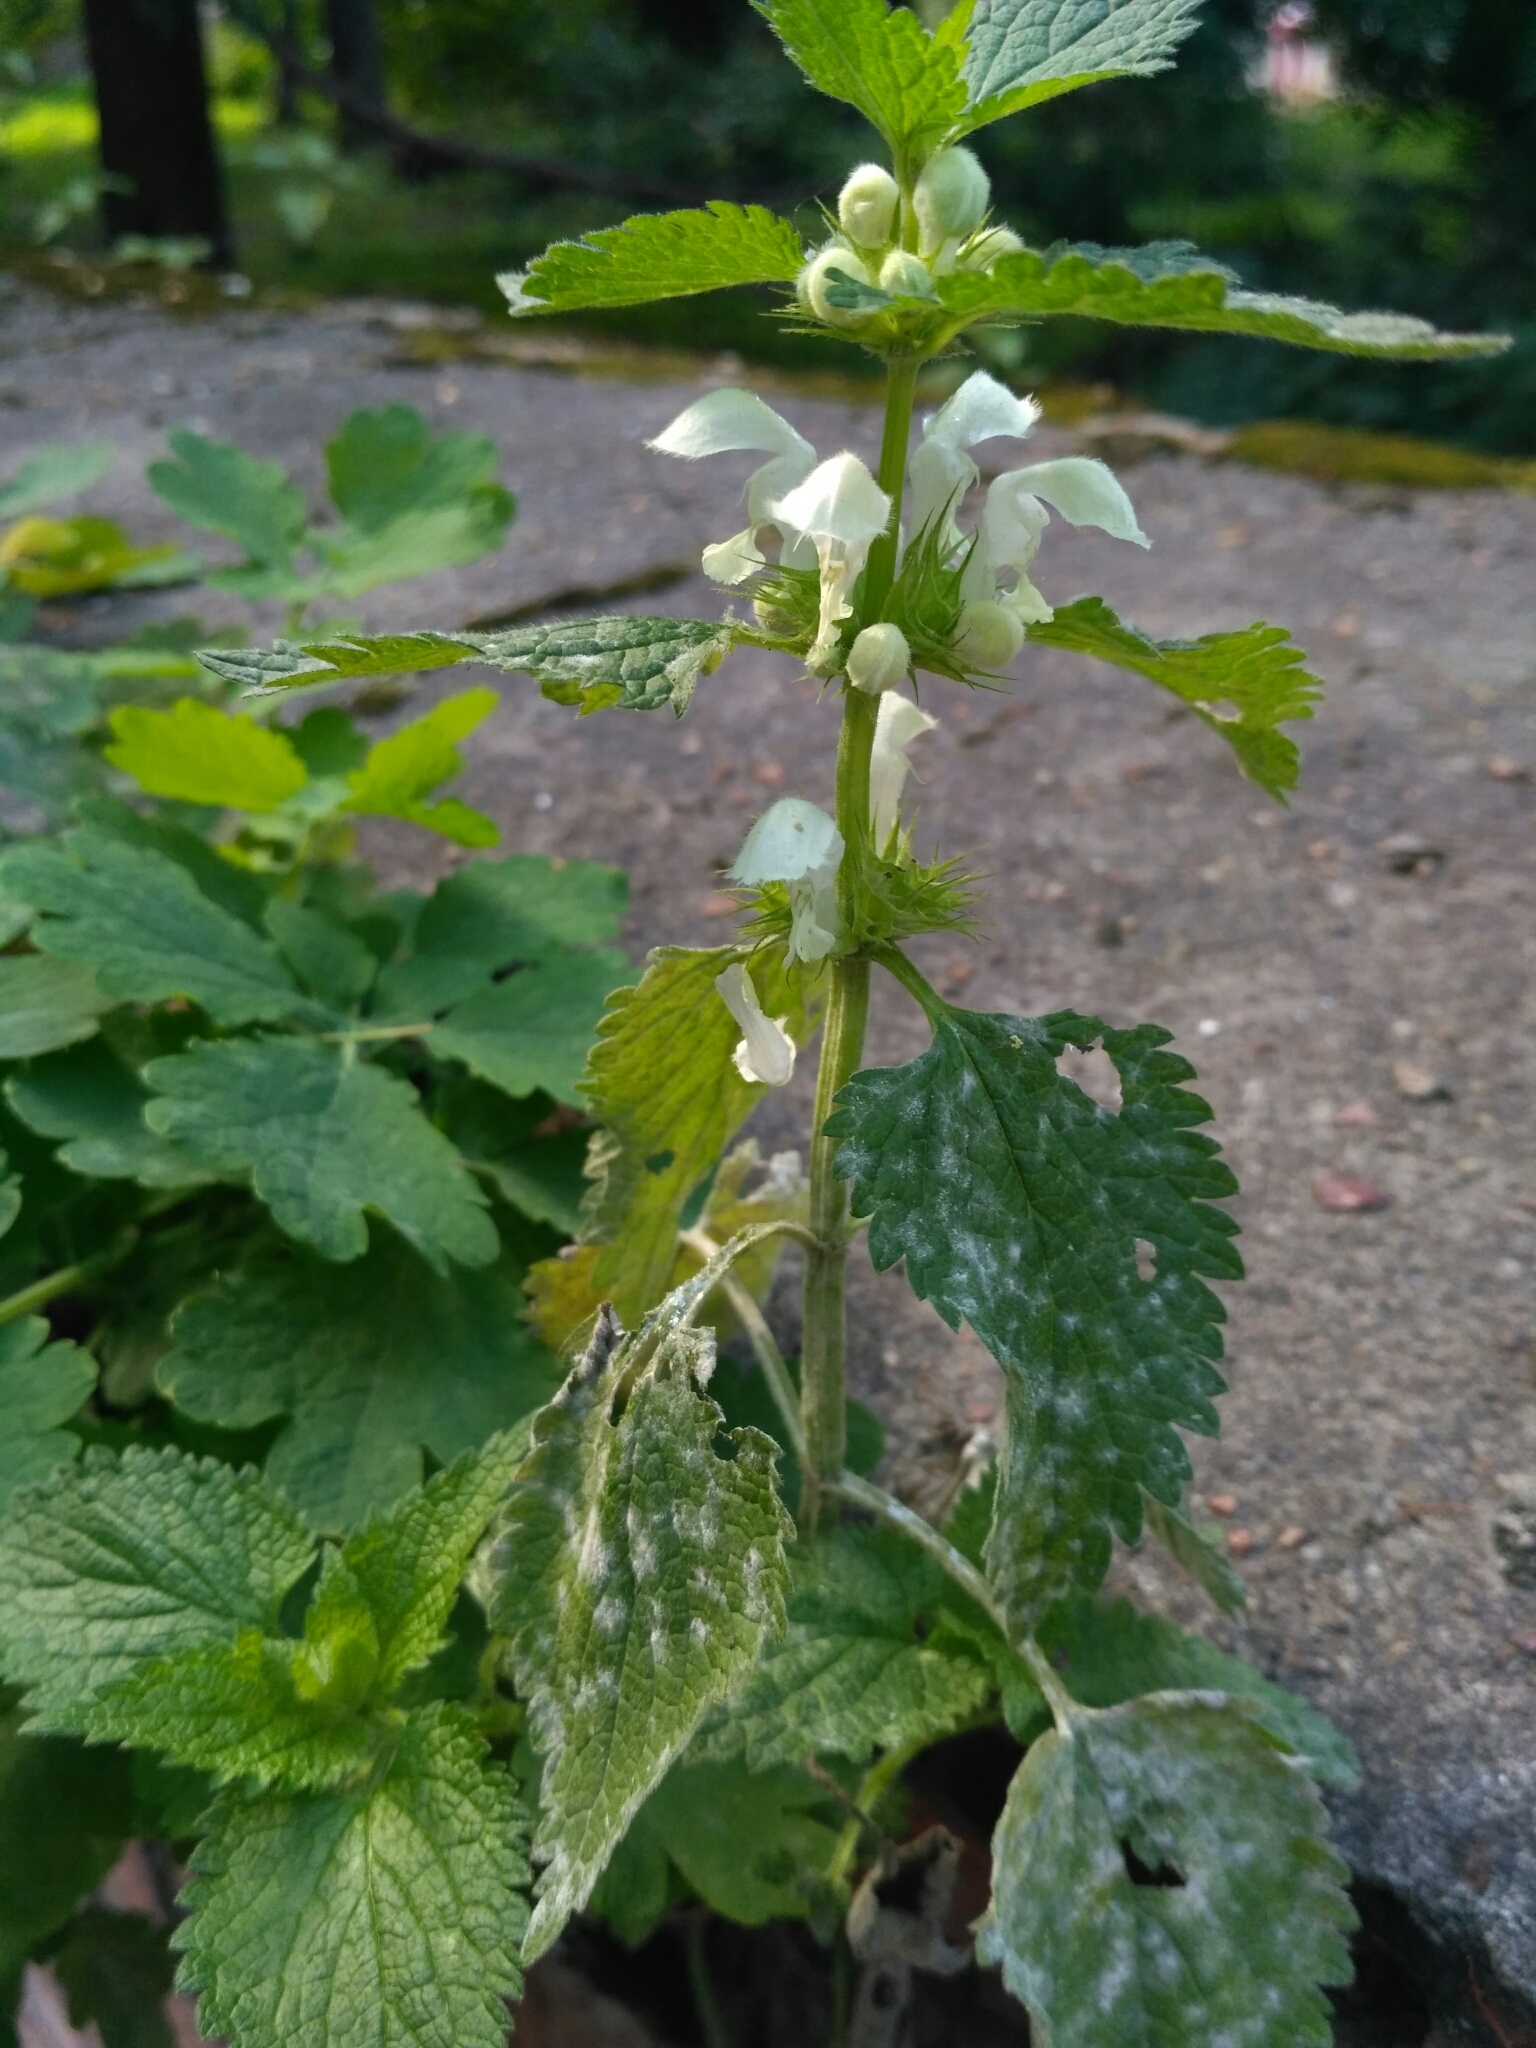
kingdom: Plantae
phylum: Tracheophyta
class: Magnoliopsida
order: Lamiales
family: Lamiaceae
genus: Lamium
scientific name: Lamium album
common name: White dead-nettle
